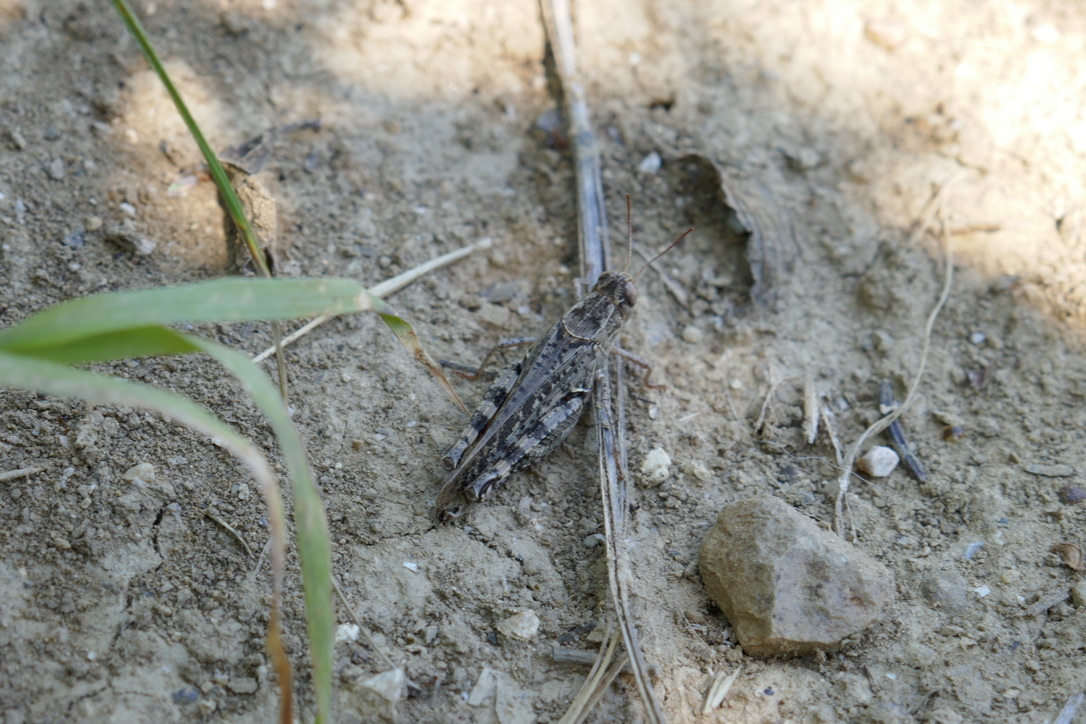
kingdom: Animalia
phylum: Arthropoda
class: Insecta
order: Orthoptera
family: Acrididae
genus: Calliptamus
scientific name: Calliptamus italicus
